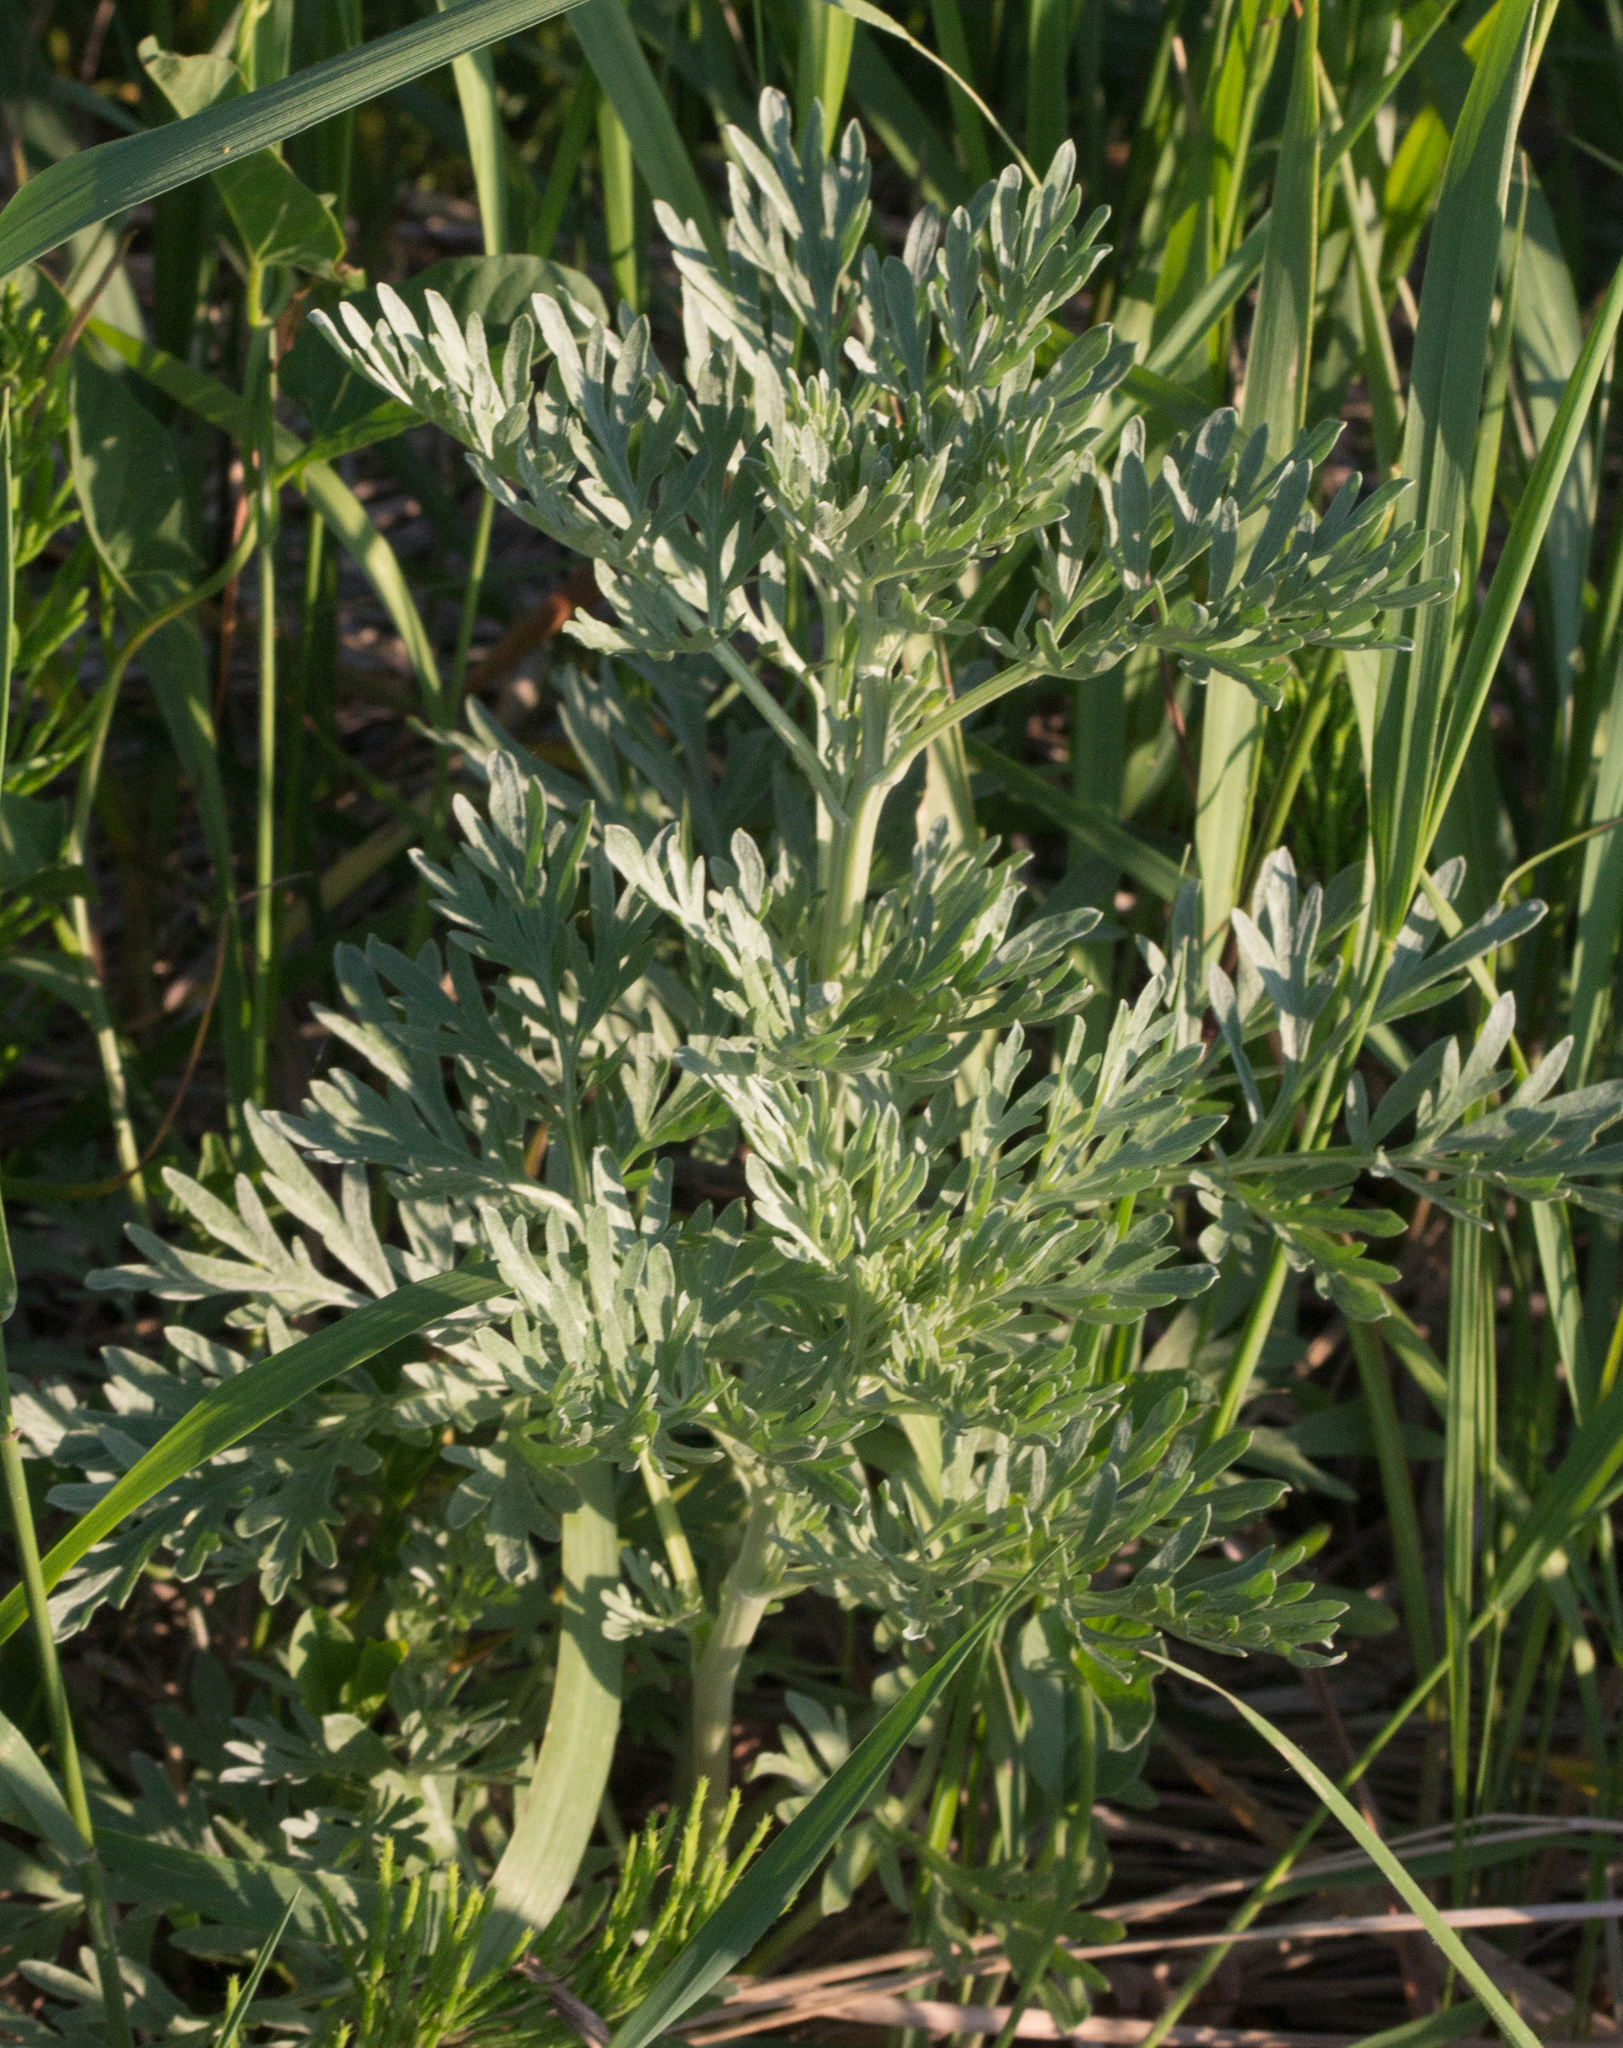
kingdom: Plantae
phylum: Tracheophyta
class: Magnoliopsida
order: Asterales
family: Asteraceae
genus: Artemisia
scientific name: Artemisia absinthium
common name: Wormwood
